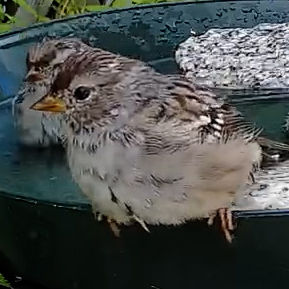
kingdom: Animalia
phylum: Chordata
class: Aves
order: Passeriformes
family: Passerellidae
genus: Zonotrichia
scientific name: Zonotrichia leucophrys
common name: White-crowned sparrow
